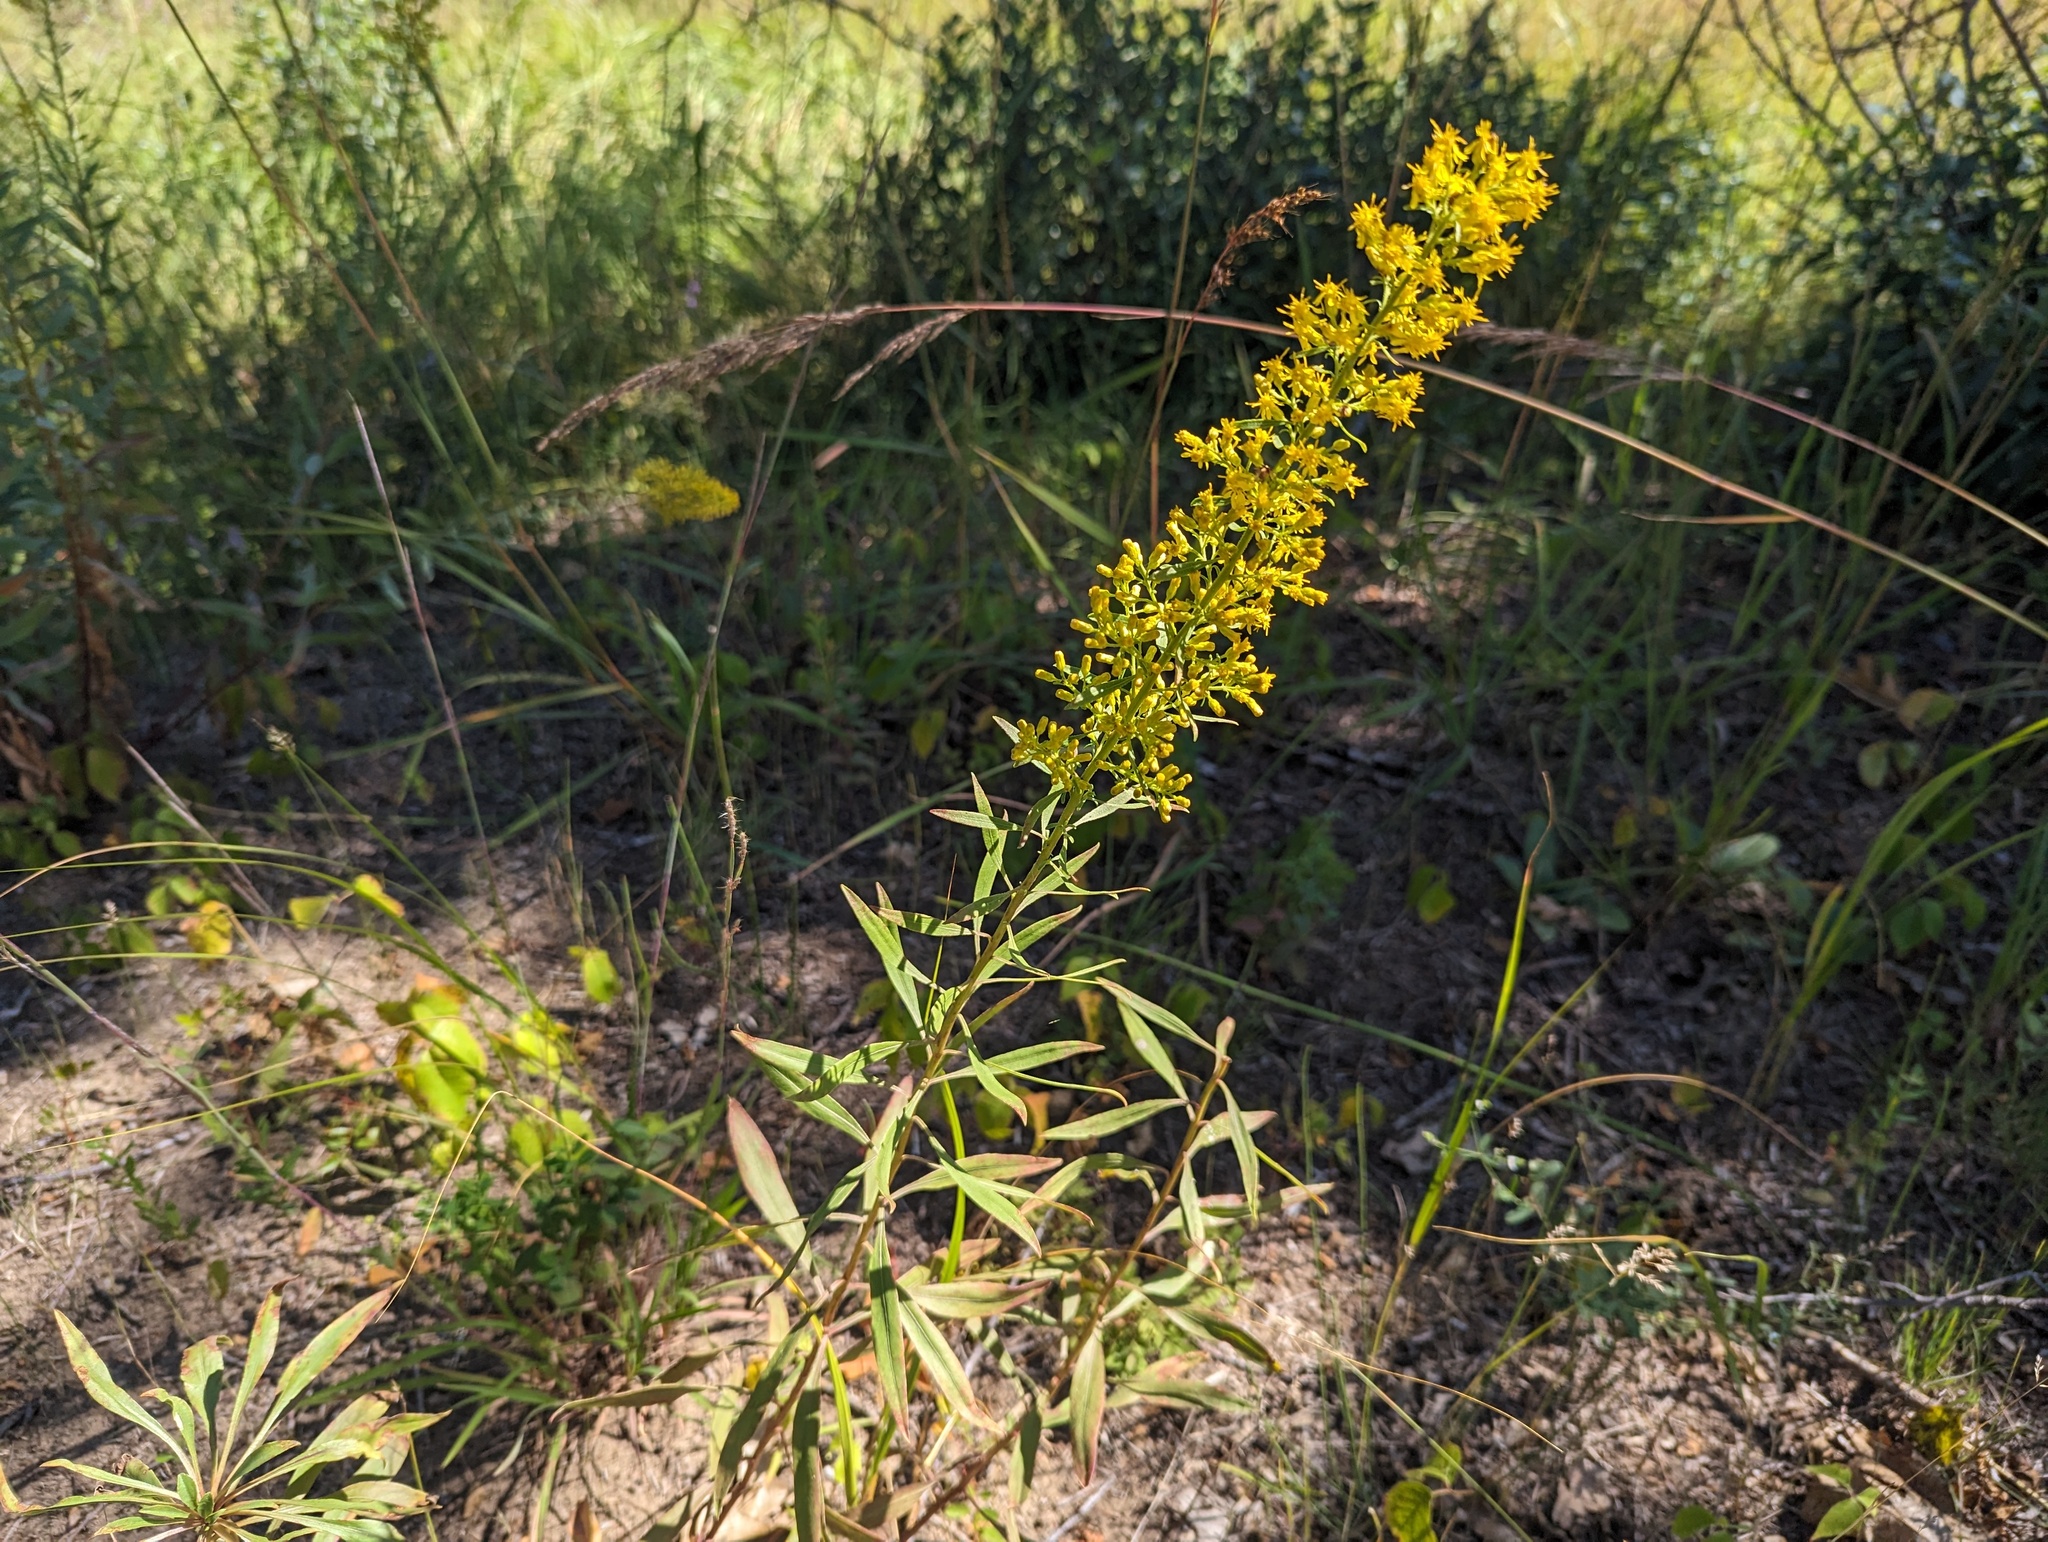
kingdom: Plantae
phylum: Tracheophyta
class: Magnoliopsida
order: Asterales
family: Asteraceae
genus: Solidago
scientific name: Solidago rigidiuscula
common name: Stiff-leaved showy goldenrod
